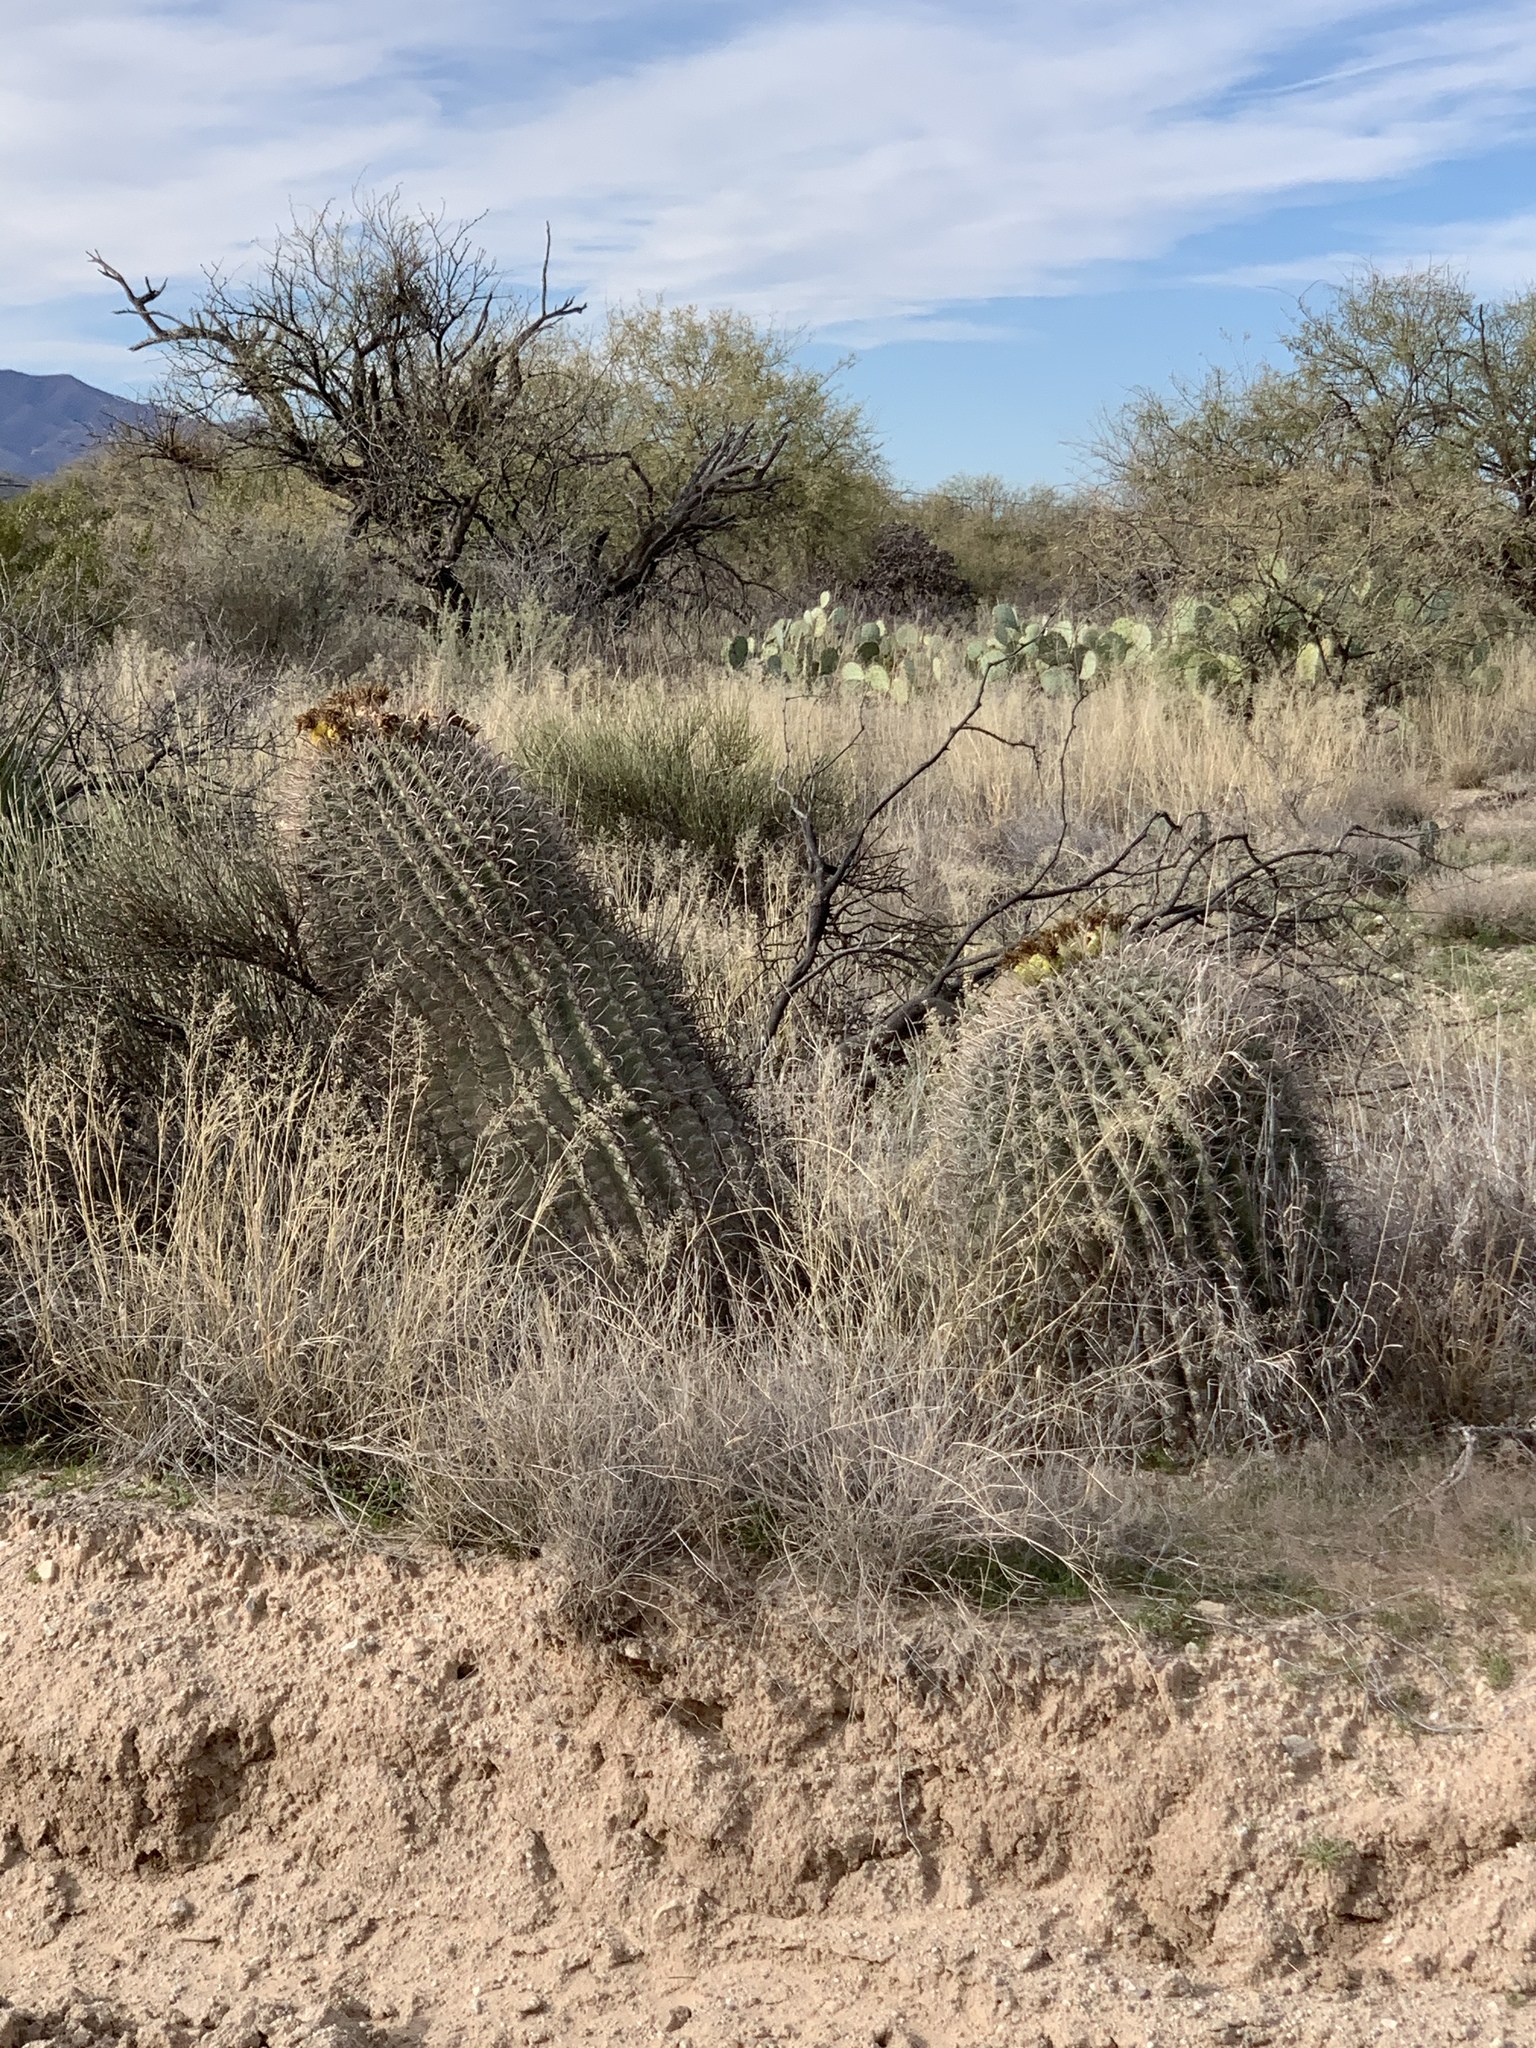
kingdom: Plantae
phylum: Tracheophyta
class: Magnoliopsida
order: Caryophyllales
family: Cactaceae
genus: Ferocactus
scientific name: Ferocactus wislizeni
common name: Candy barrel cactus
